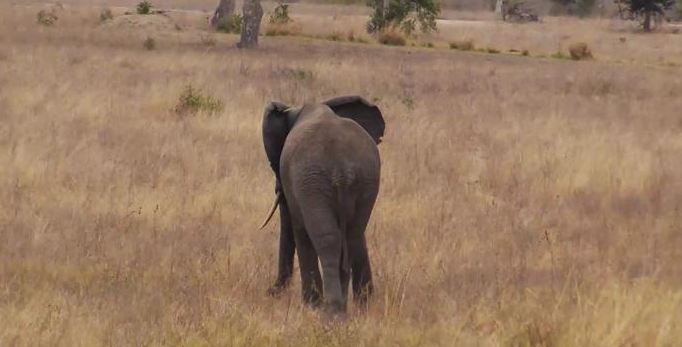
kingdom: Animalia
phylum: Chordata
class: Mammalia
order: Proboscidea
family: Elephantidae
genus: Loxodonta
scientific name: Loxodonta africana
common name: African elephant
